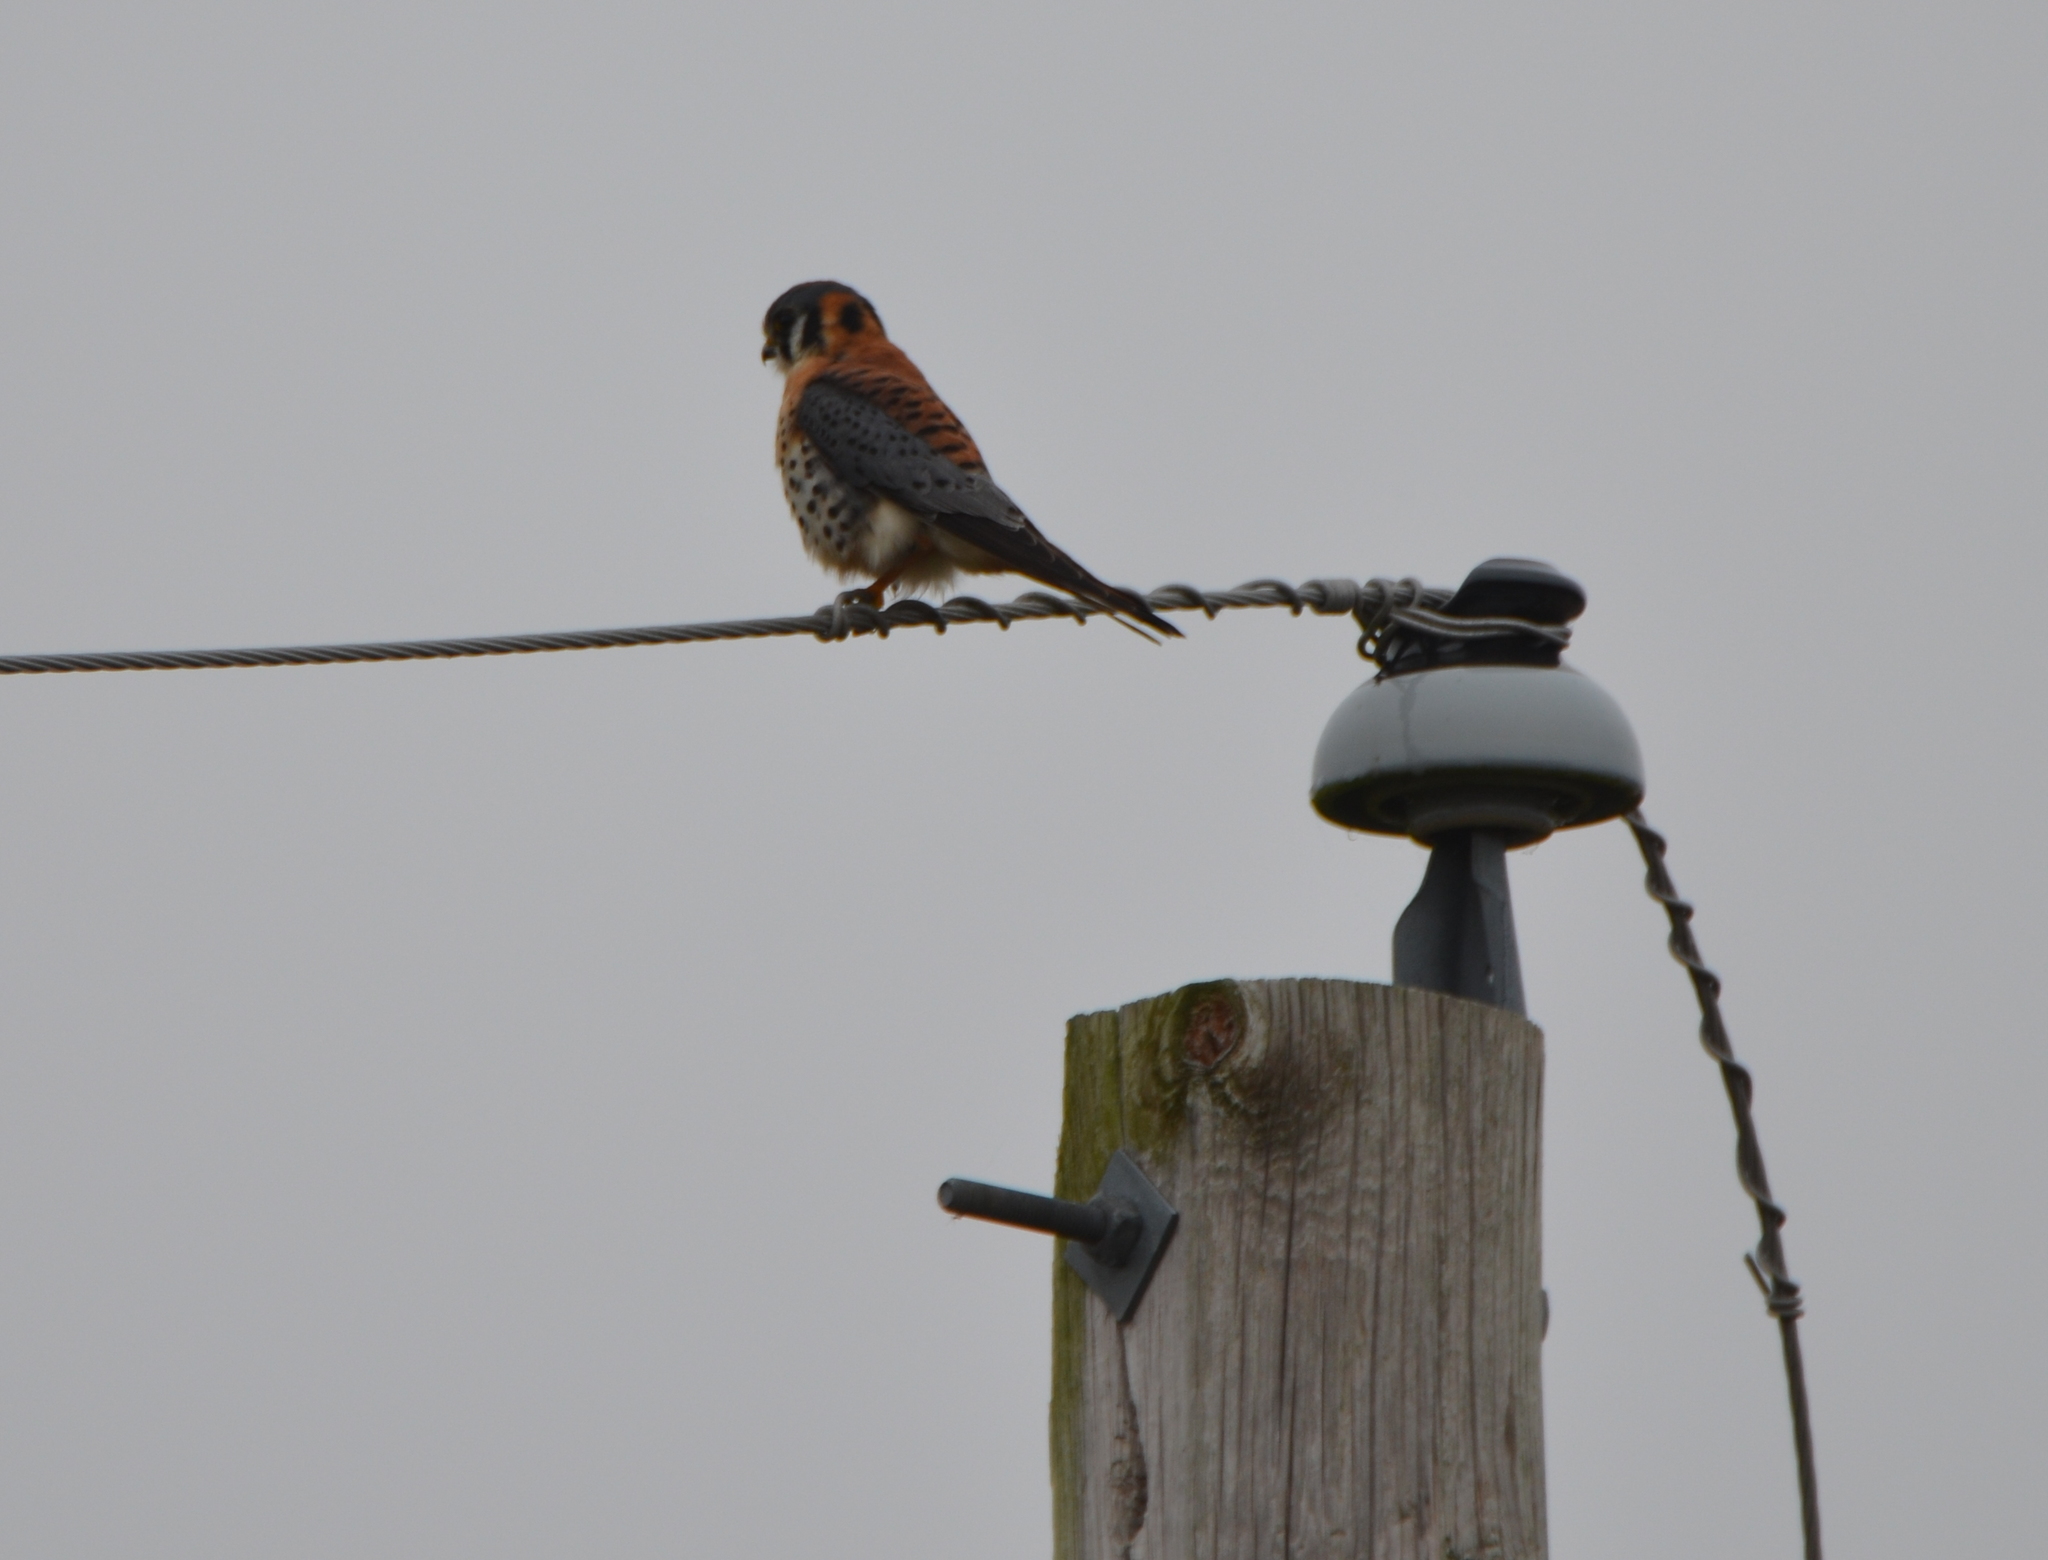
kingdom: Animalia
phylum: Chordata
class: Aves
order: Falconiformes
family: Falconidae
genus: Falco
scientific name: Falco sparverius
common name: American kestrel
